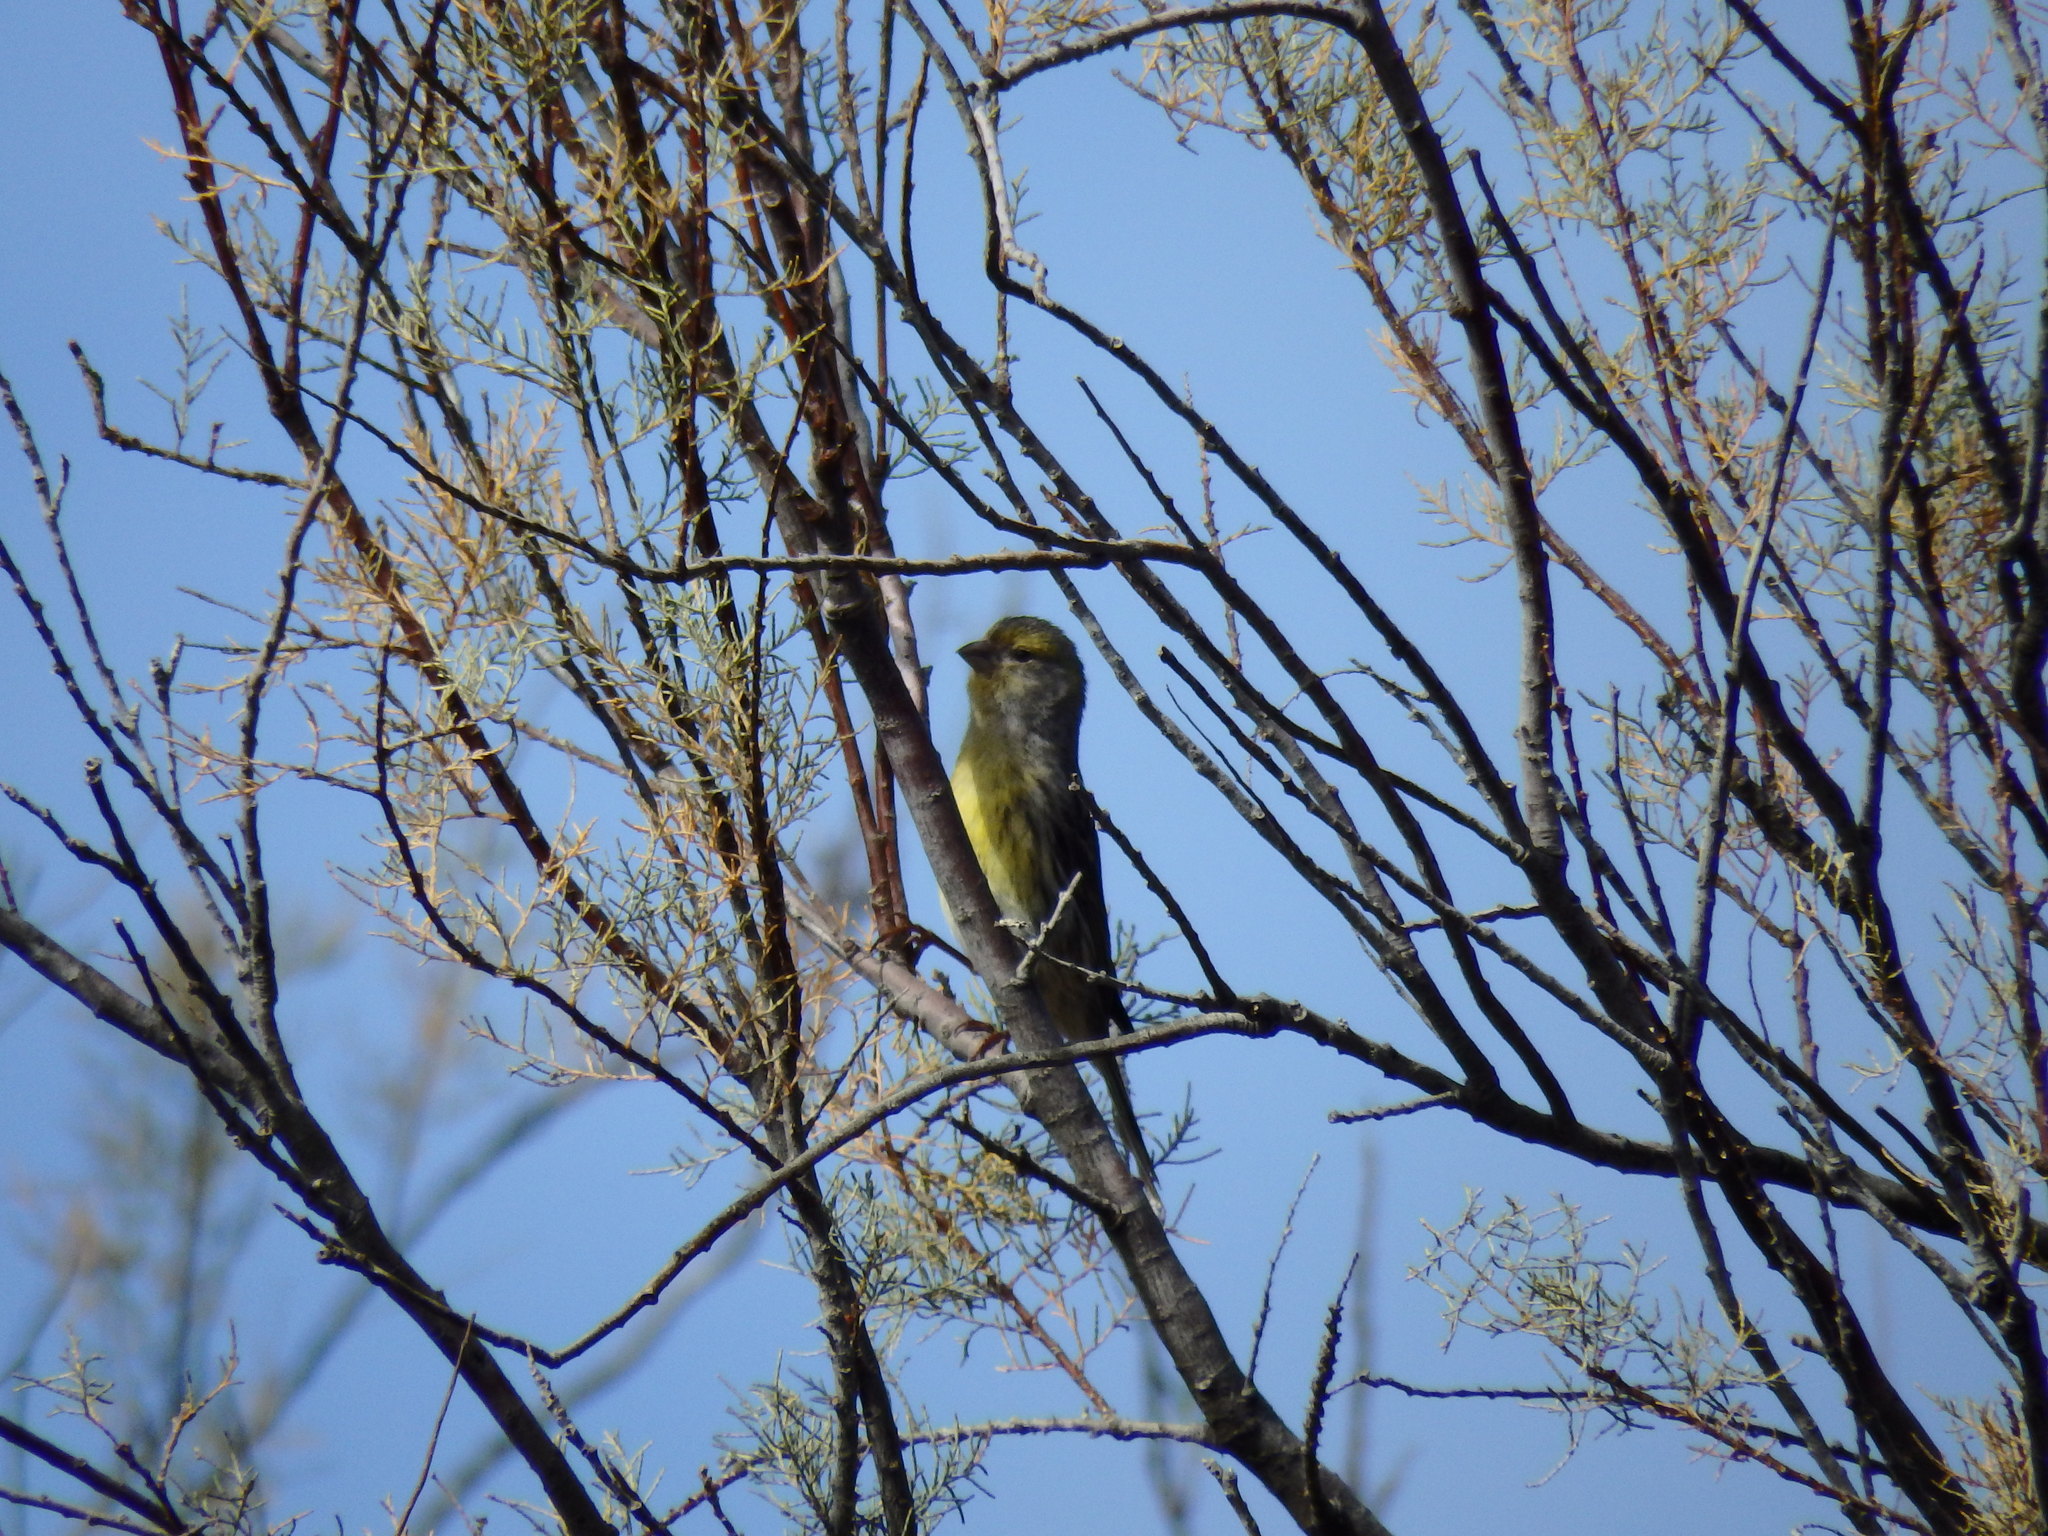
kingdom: Animalia
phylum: Chordata
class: Aves
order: Passeriformes
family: Fringillidae
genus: Serinus
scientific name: Serinus canaria
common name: Atlantic canary
